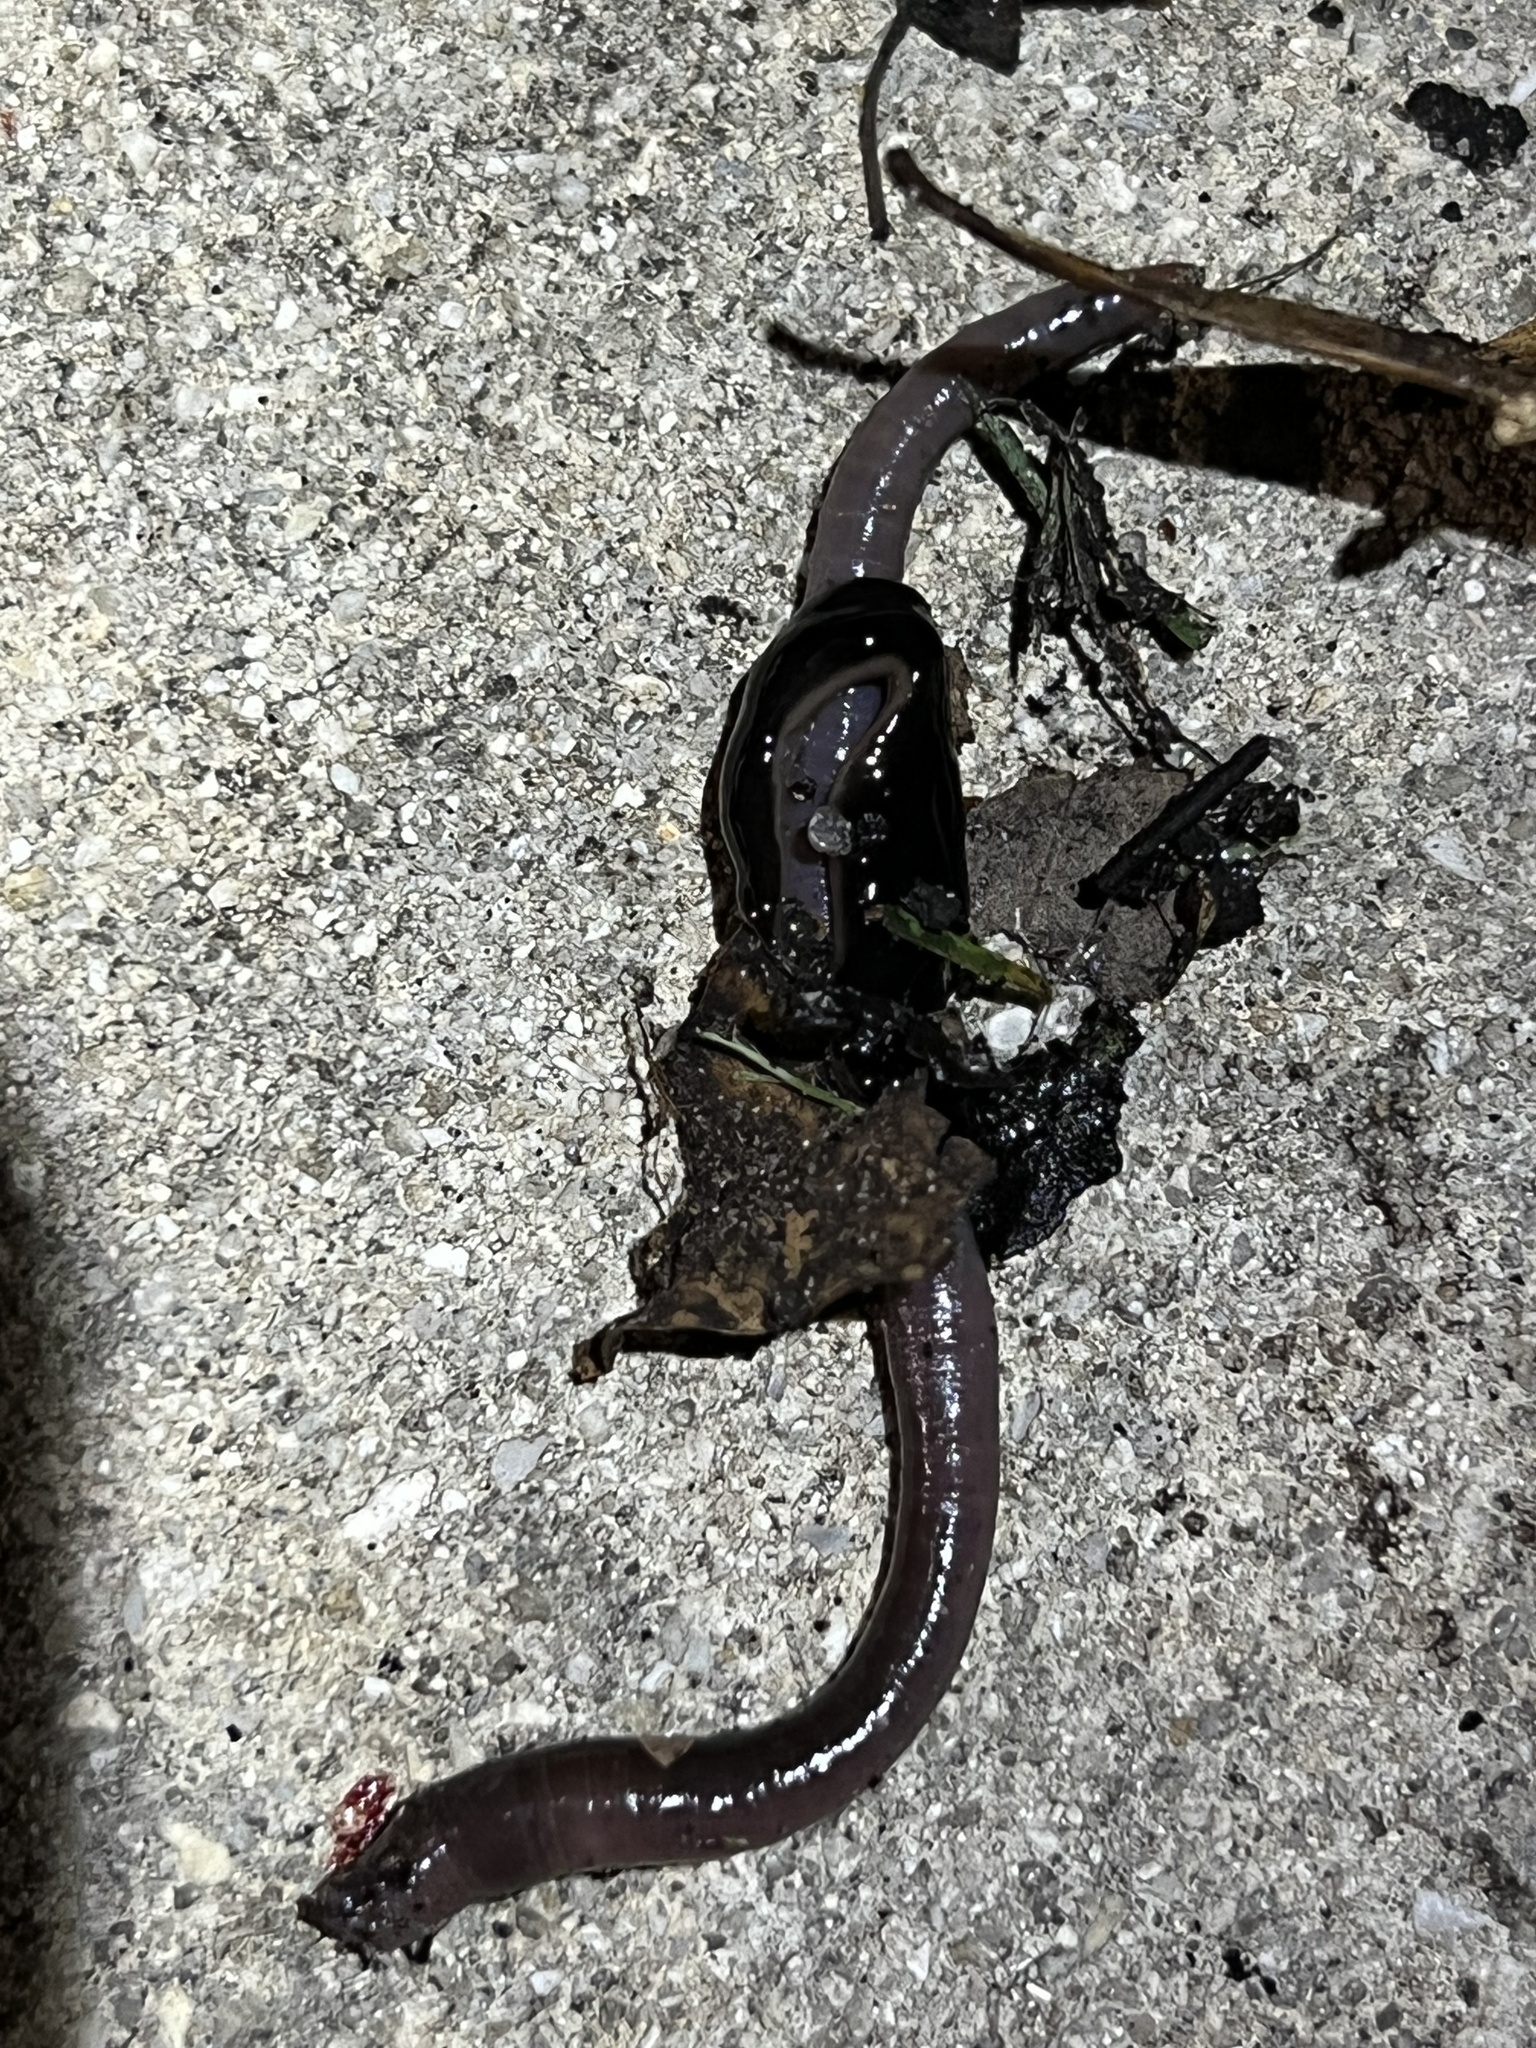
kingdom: Animalia
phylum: Platyhelminthes
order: Tricladida
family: Geoplanidae
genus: Platydemus
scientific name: Platydemus manokwari
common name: New guinea flatworm
